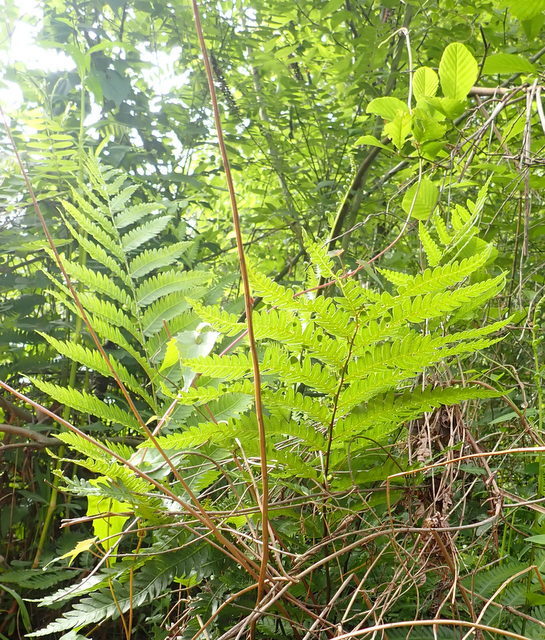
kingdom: Plantae
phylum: Tracheophyta
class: Polypodiopsida
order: Polypodiales
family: Blechnaceae
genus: Anchistea
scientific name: Anchistea virginica
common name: Virginia chain fern
